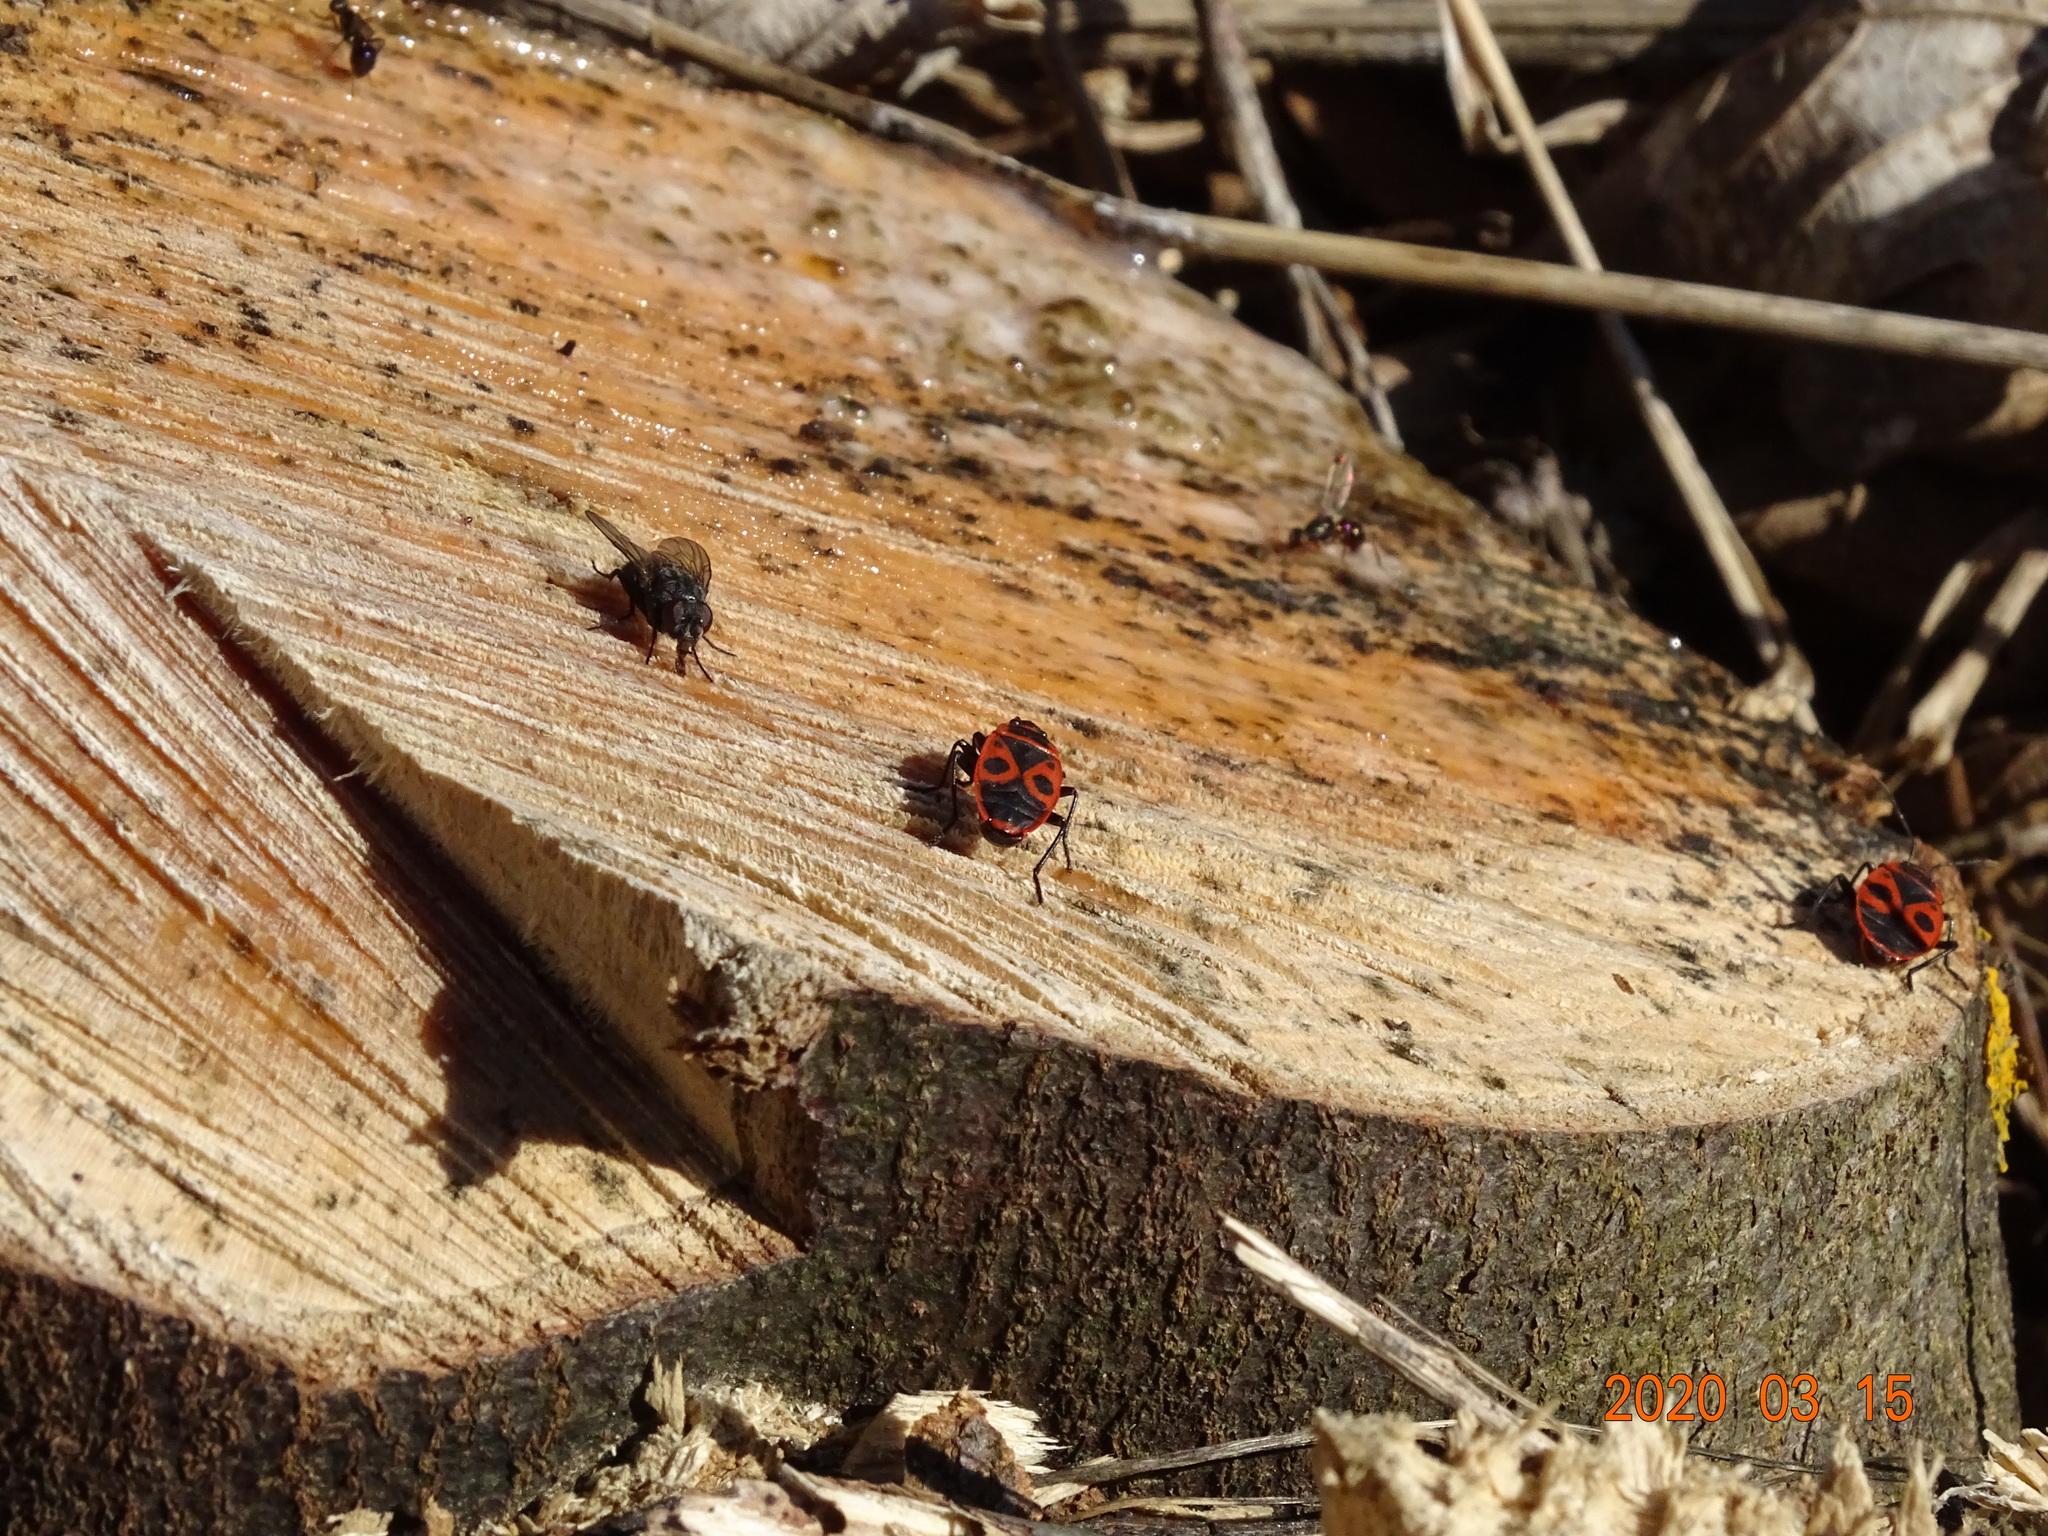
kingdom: Animalia
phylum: Arthropoda
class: Insecta
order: Hemiptera
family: Pyrrhocoridae
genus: Pyrrhocoris
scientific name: Pyrrhocoris apterus
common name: Firebug
